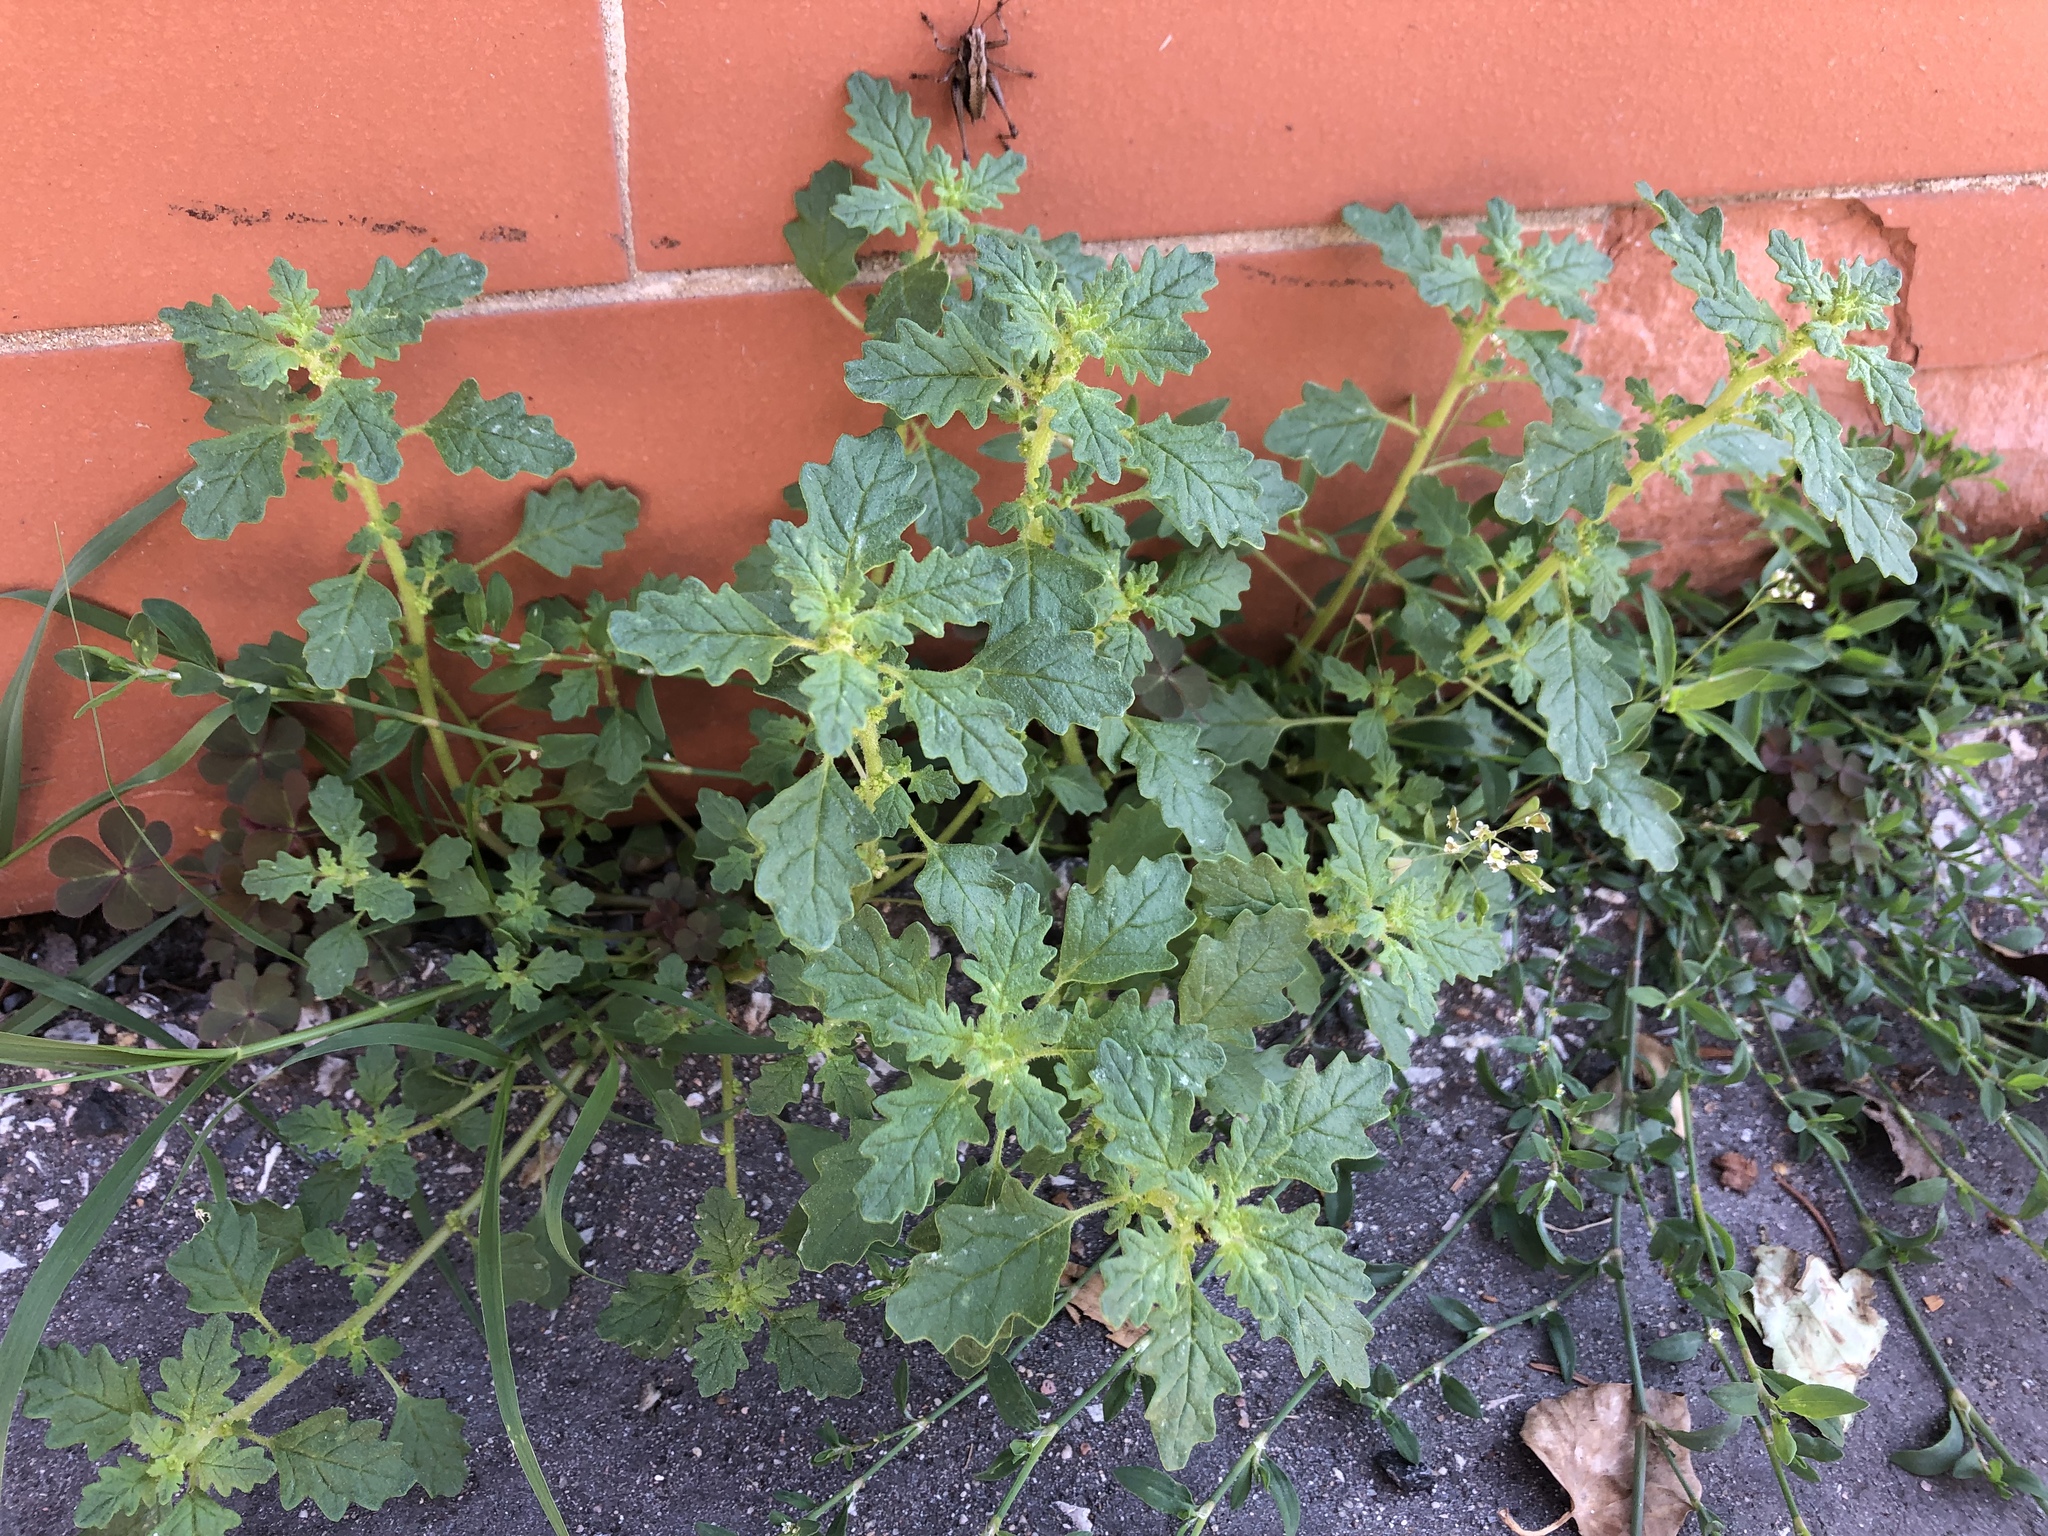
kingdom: Plantae
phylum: Tracheophyta
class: Magnoliopsida
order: Caryophyllales
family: Amaranthaceae
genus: Dysphania
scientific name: Dysphania pumilio
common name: Clammy goosefoot
